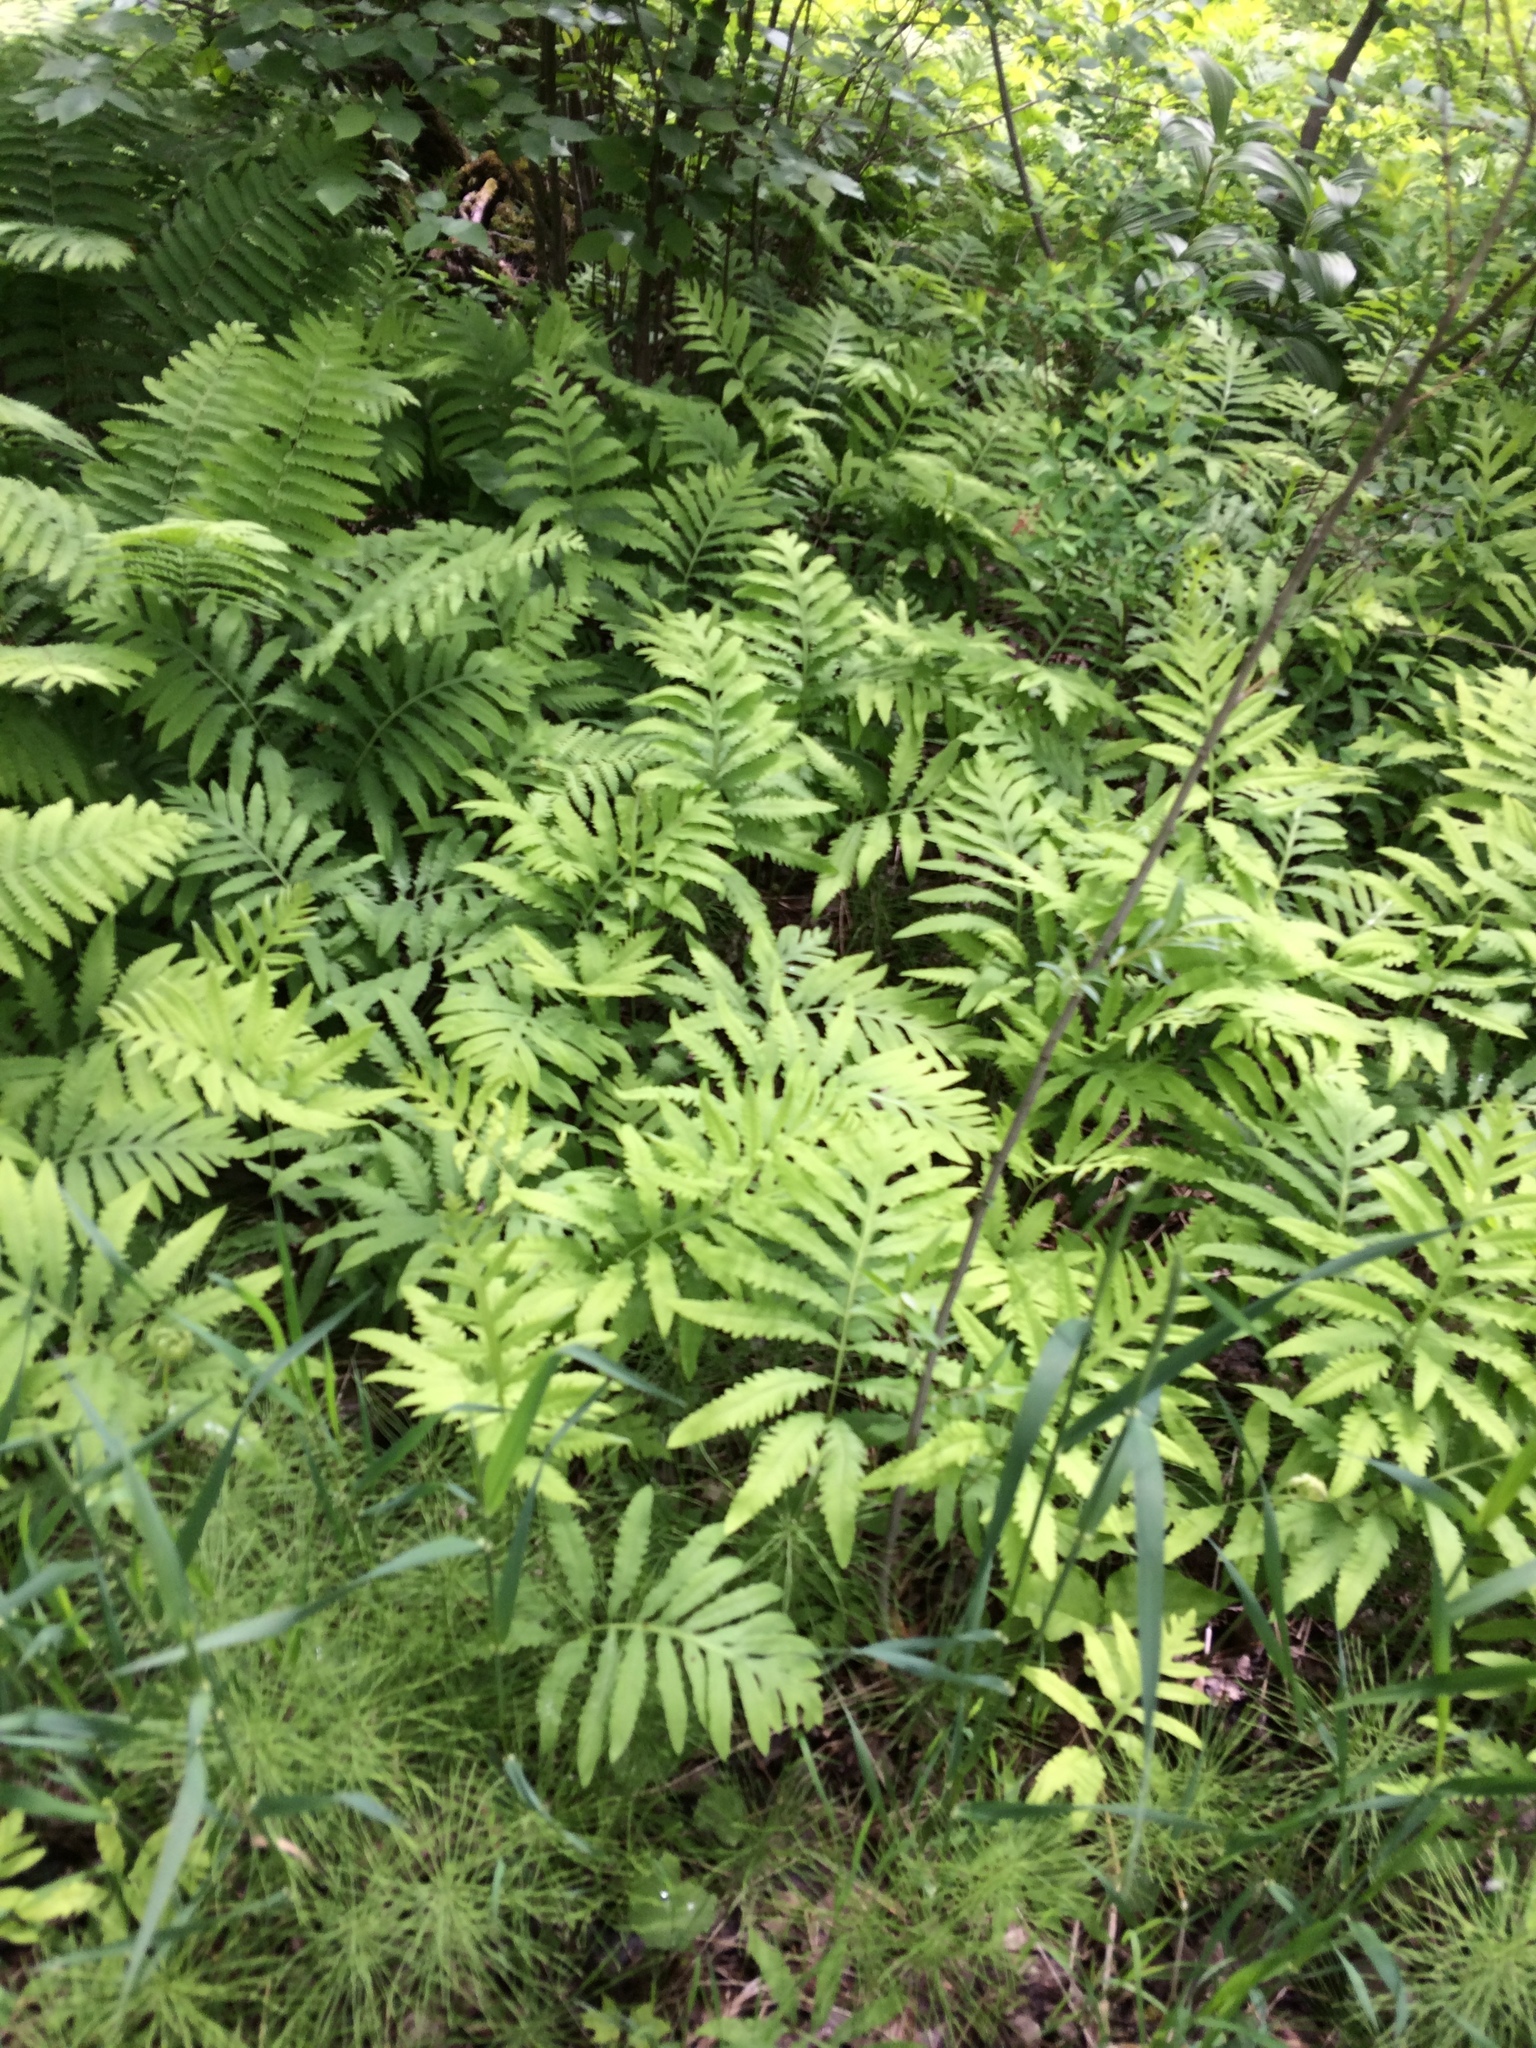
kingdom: Plantae
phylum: Tracheophyta
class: Polypodiopsida
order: Polypodiales
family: Onocleaceae
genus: Onoclea
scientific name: Onoclea sensibilis
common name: Sensitive fern
